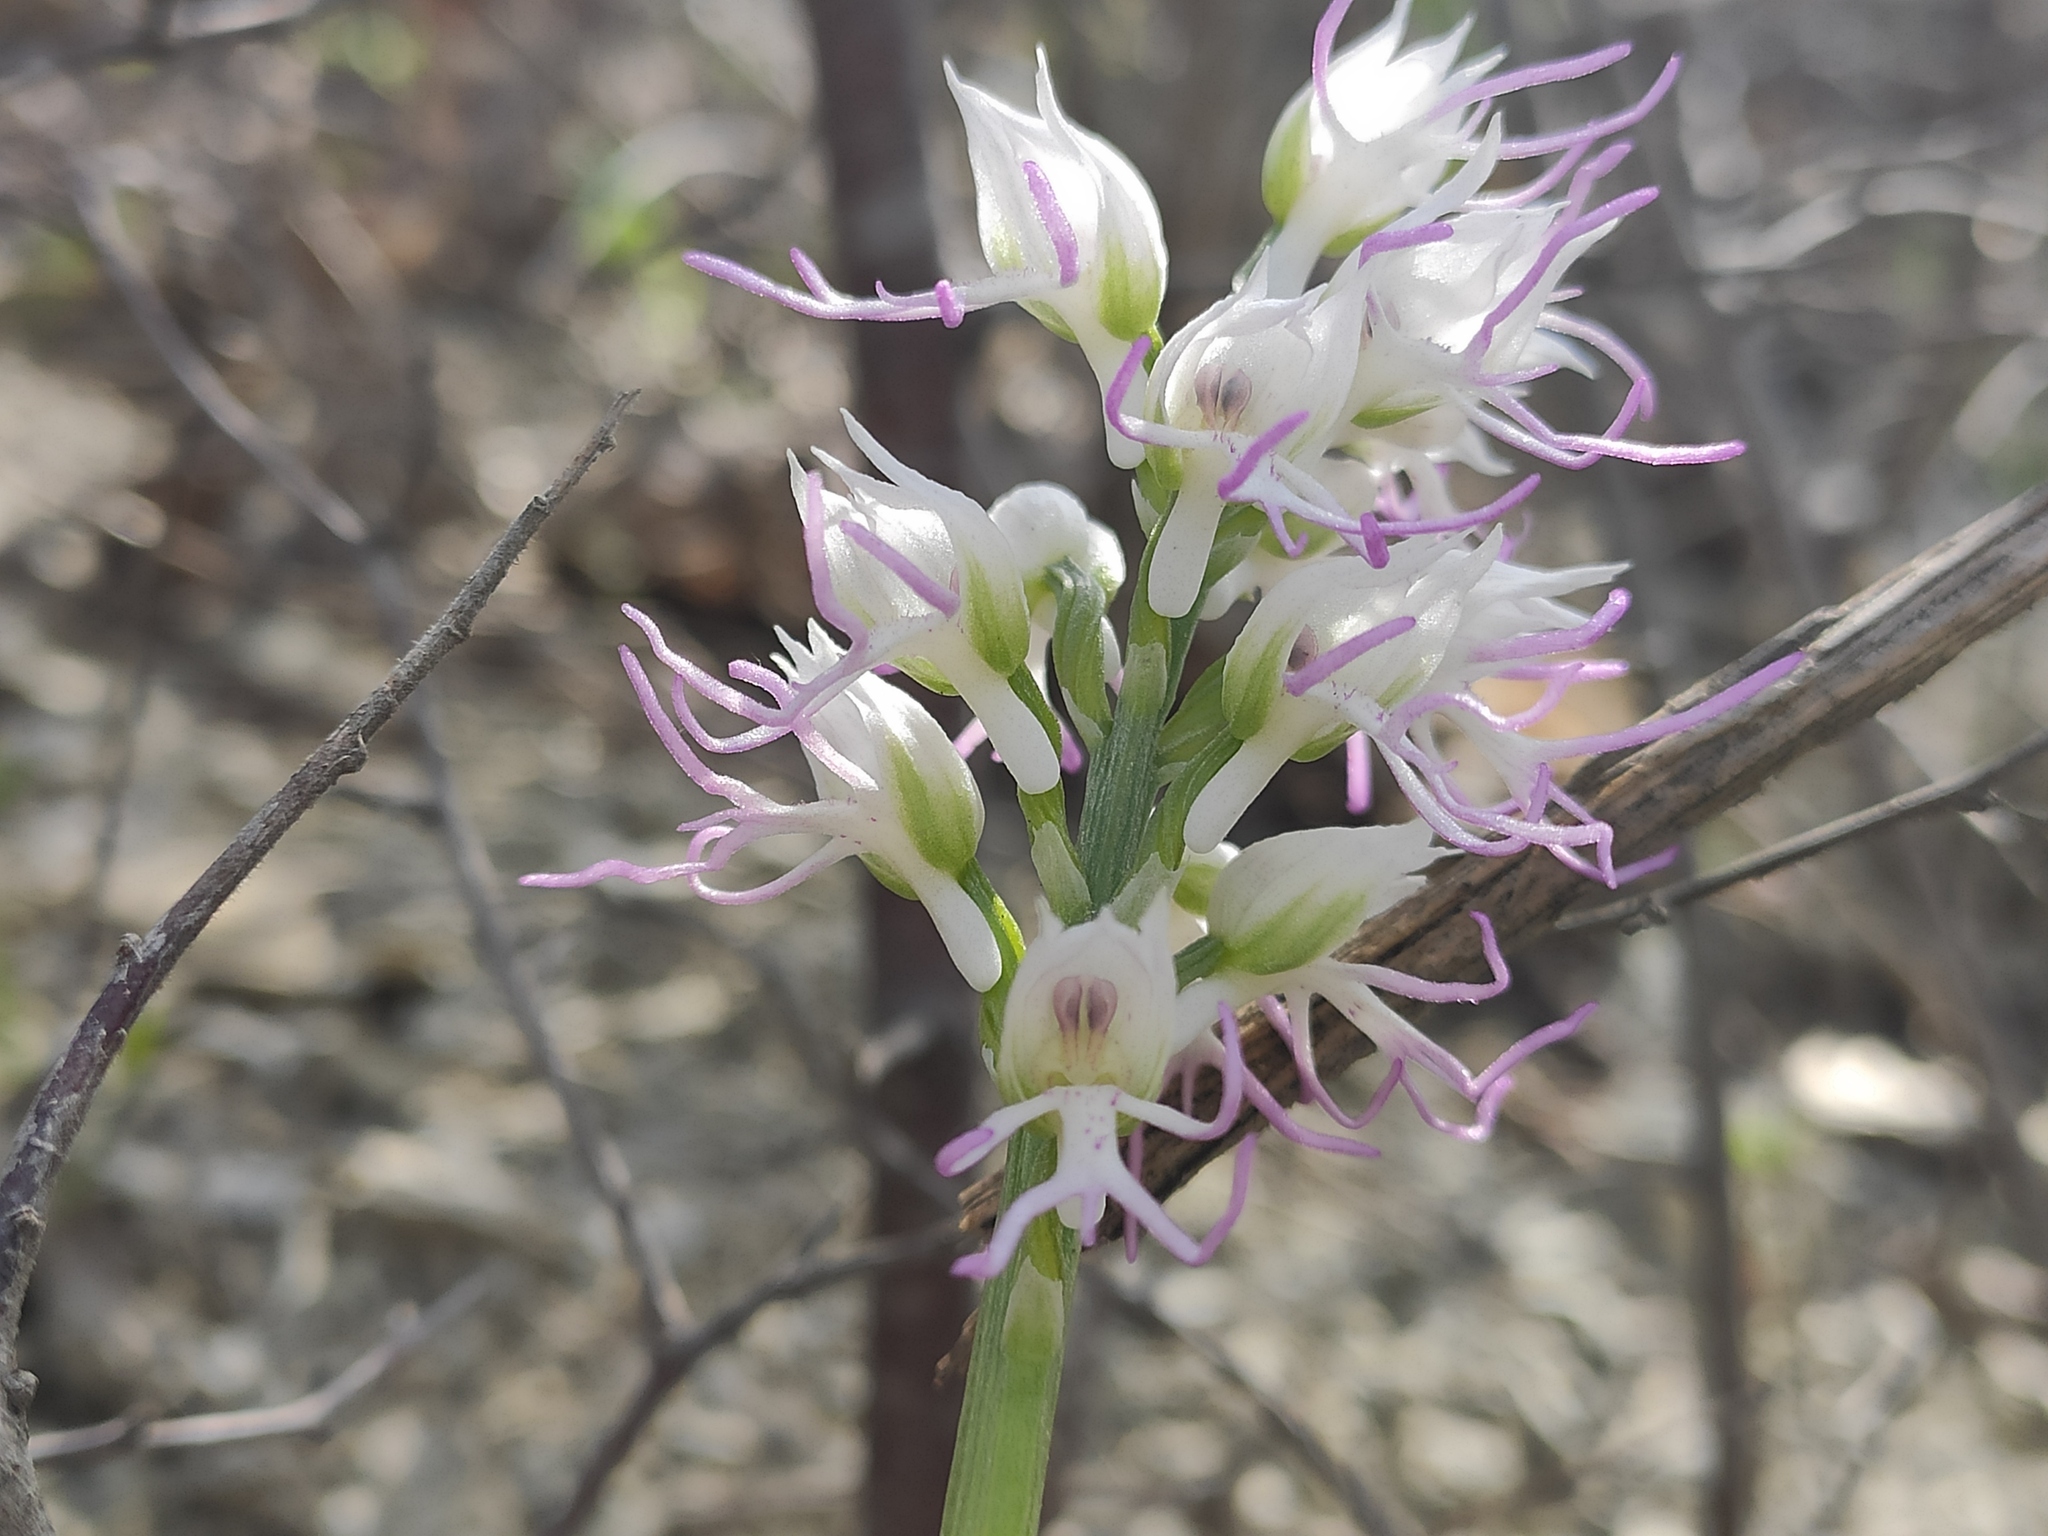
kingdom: Plantae
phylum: Tracheophyta
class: Liliopsida
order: Asparagales
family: Orchidaceae
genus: Orchis
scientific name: Orchis simia
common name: Monkey orchid
